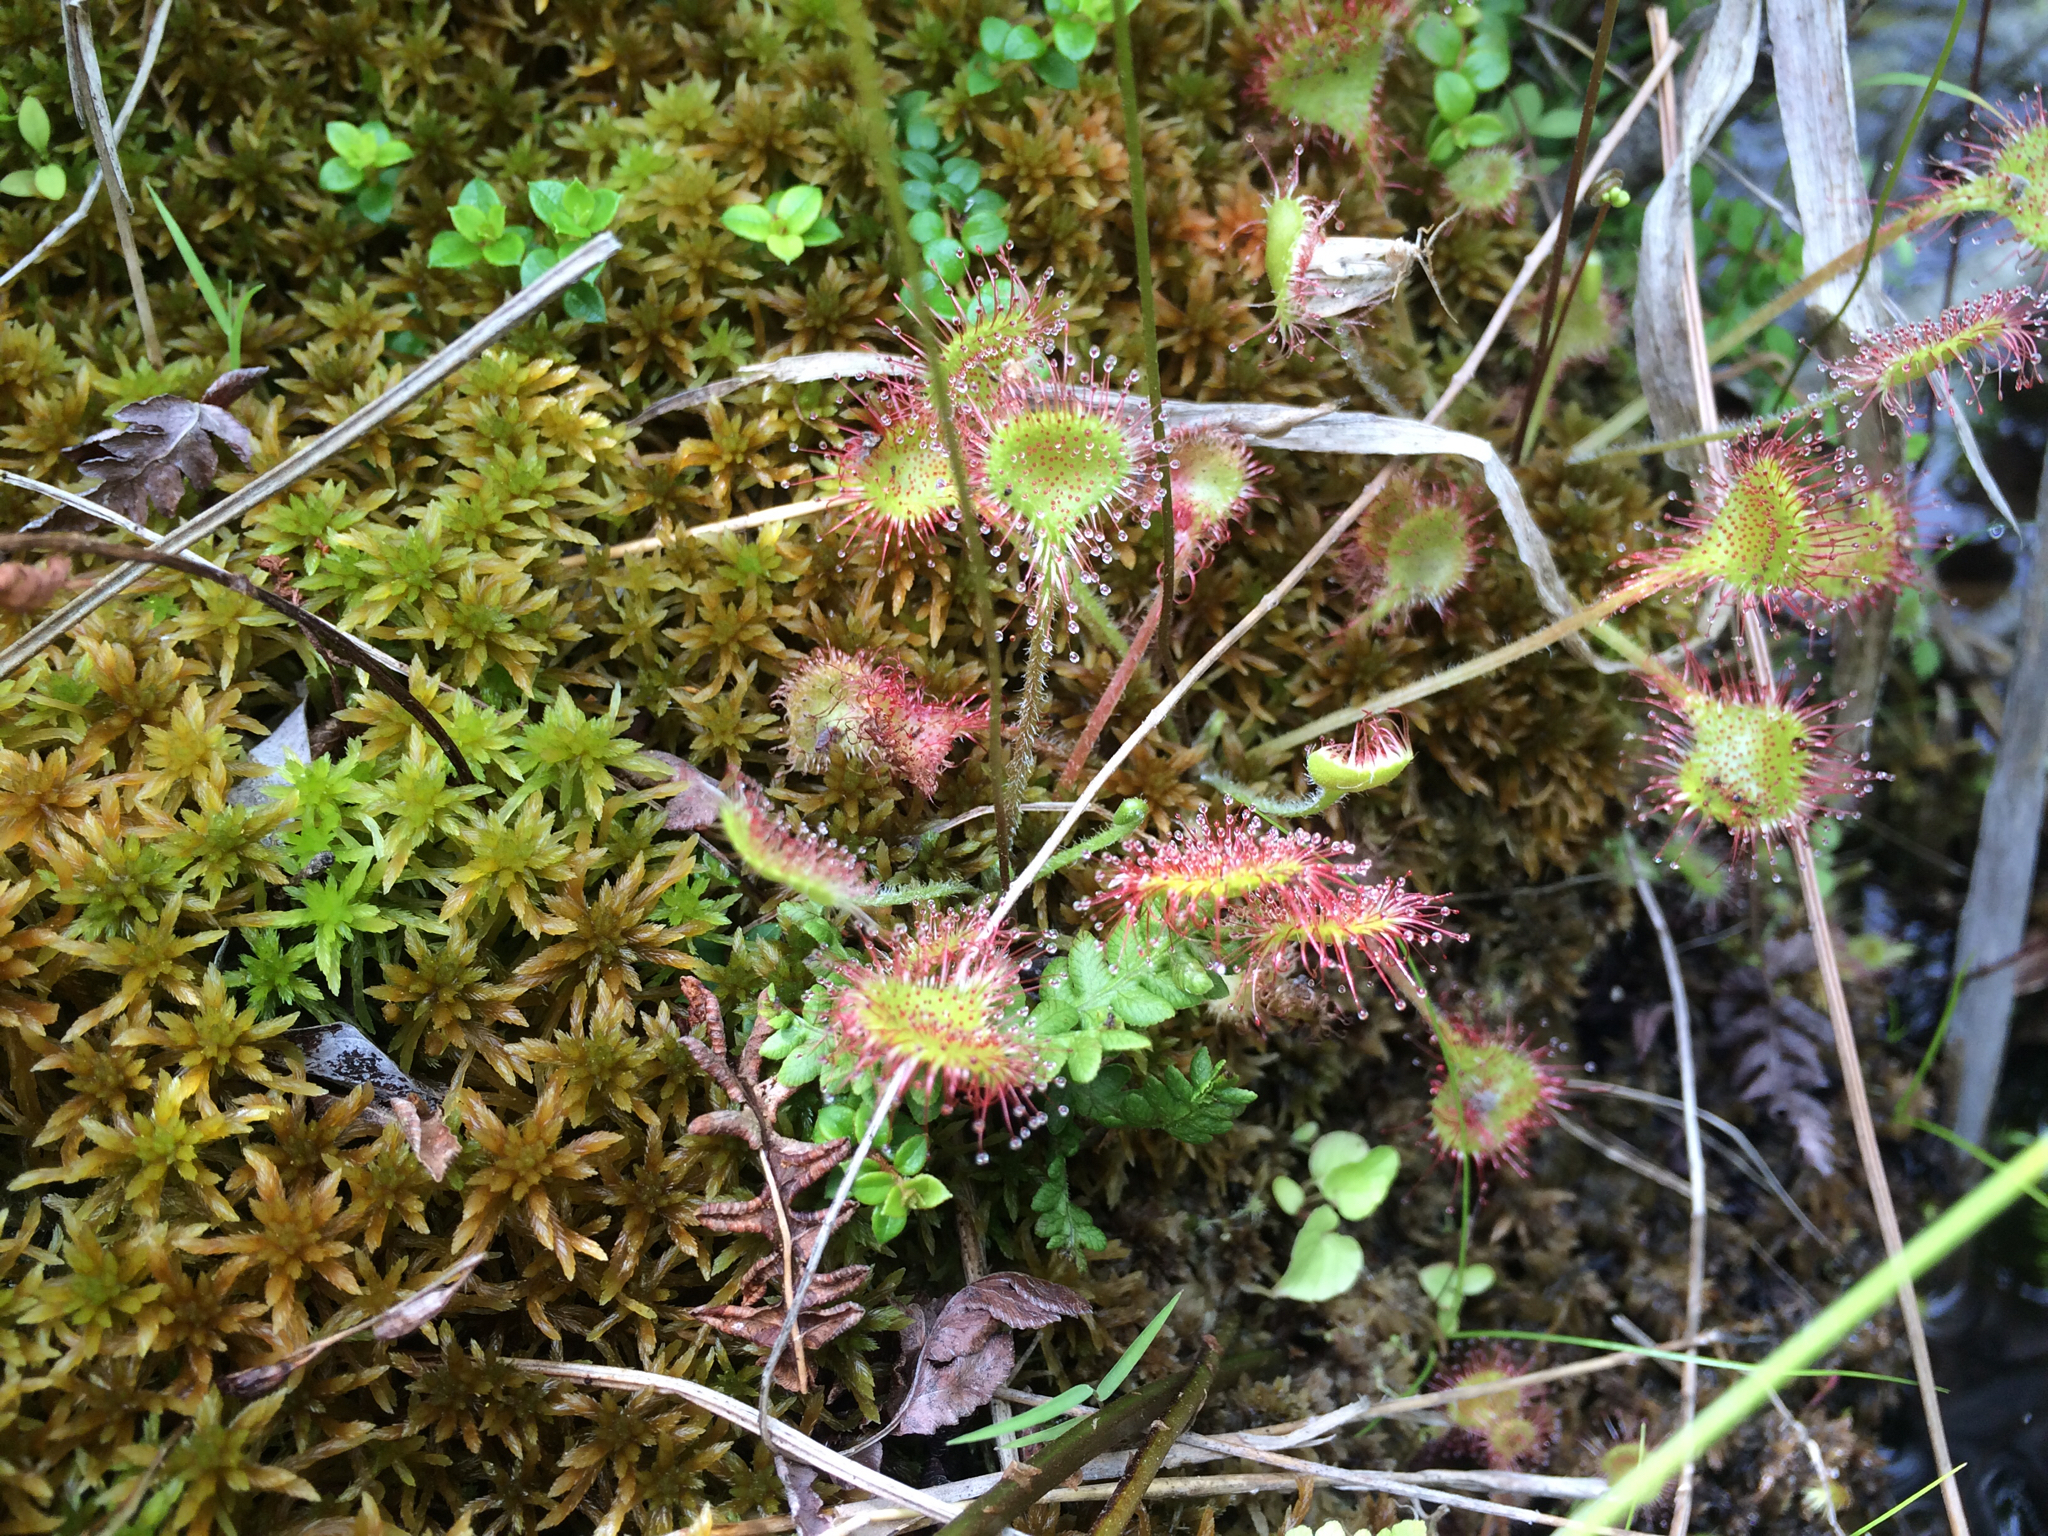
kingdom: Plantae
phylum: Tracheophyta
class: Magnoliopsida
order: Caryophyllales
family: Droseraceae
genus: Drosera
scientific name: Drosera rotundifolia
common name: Round-leaved sundew
